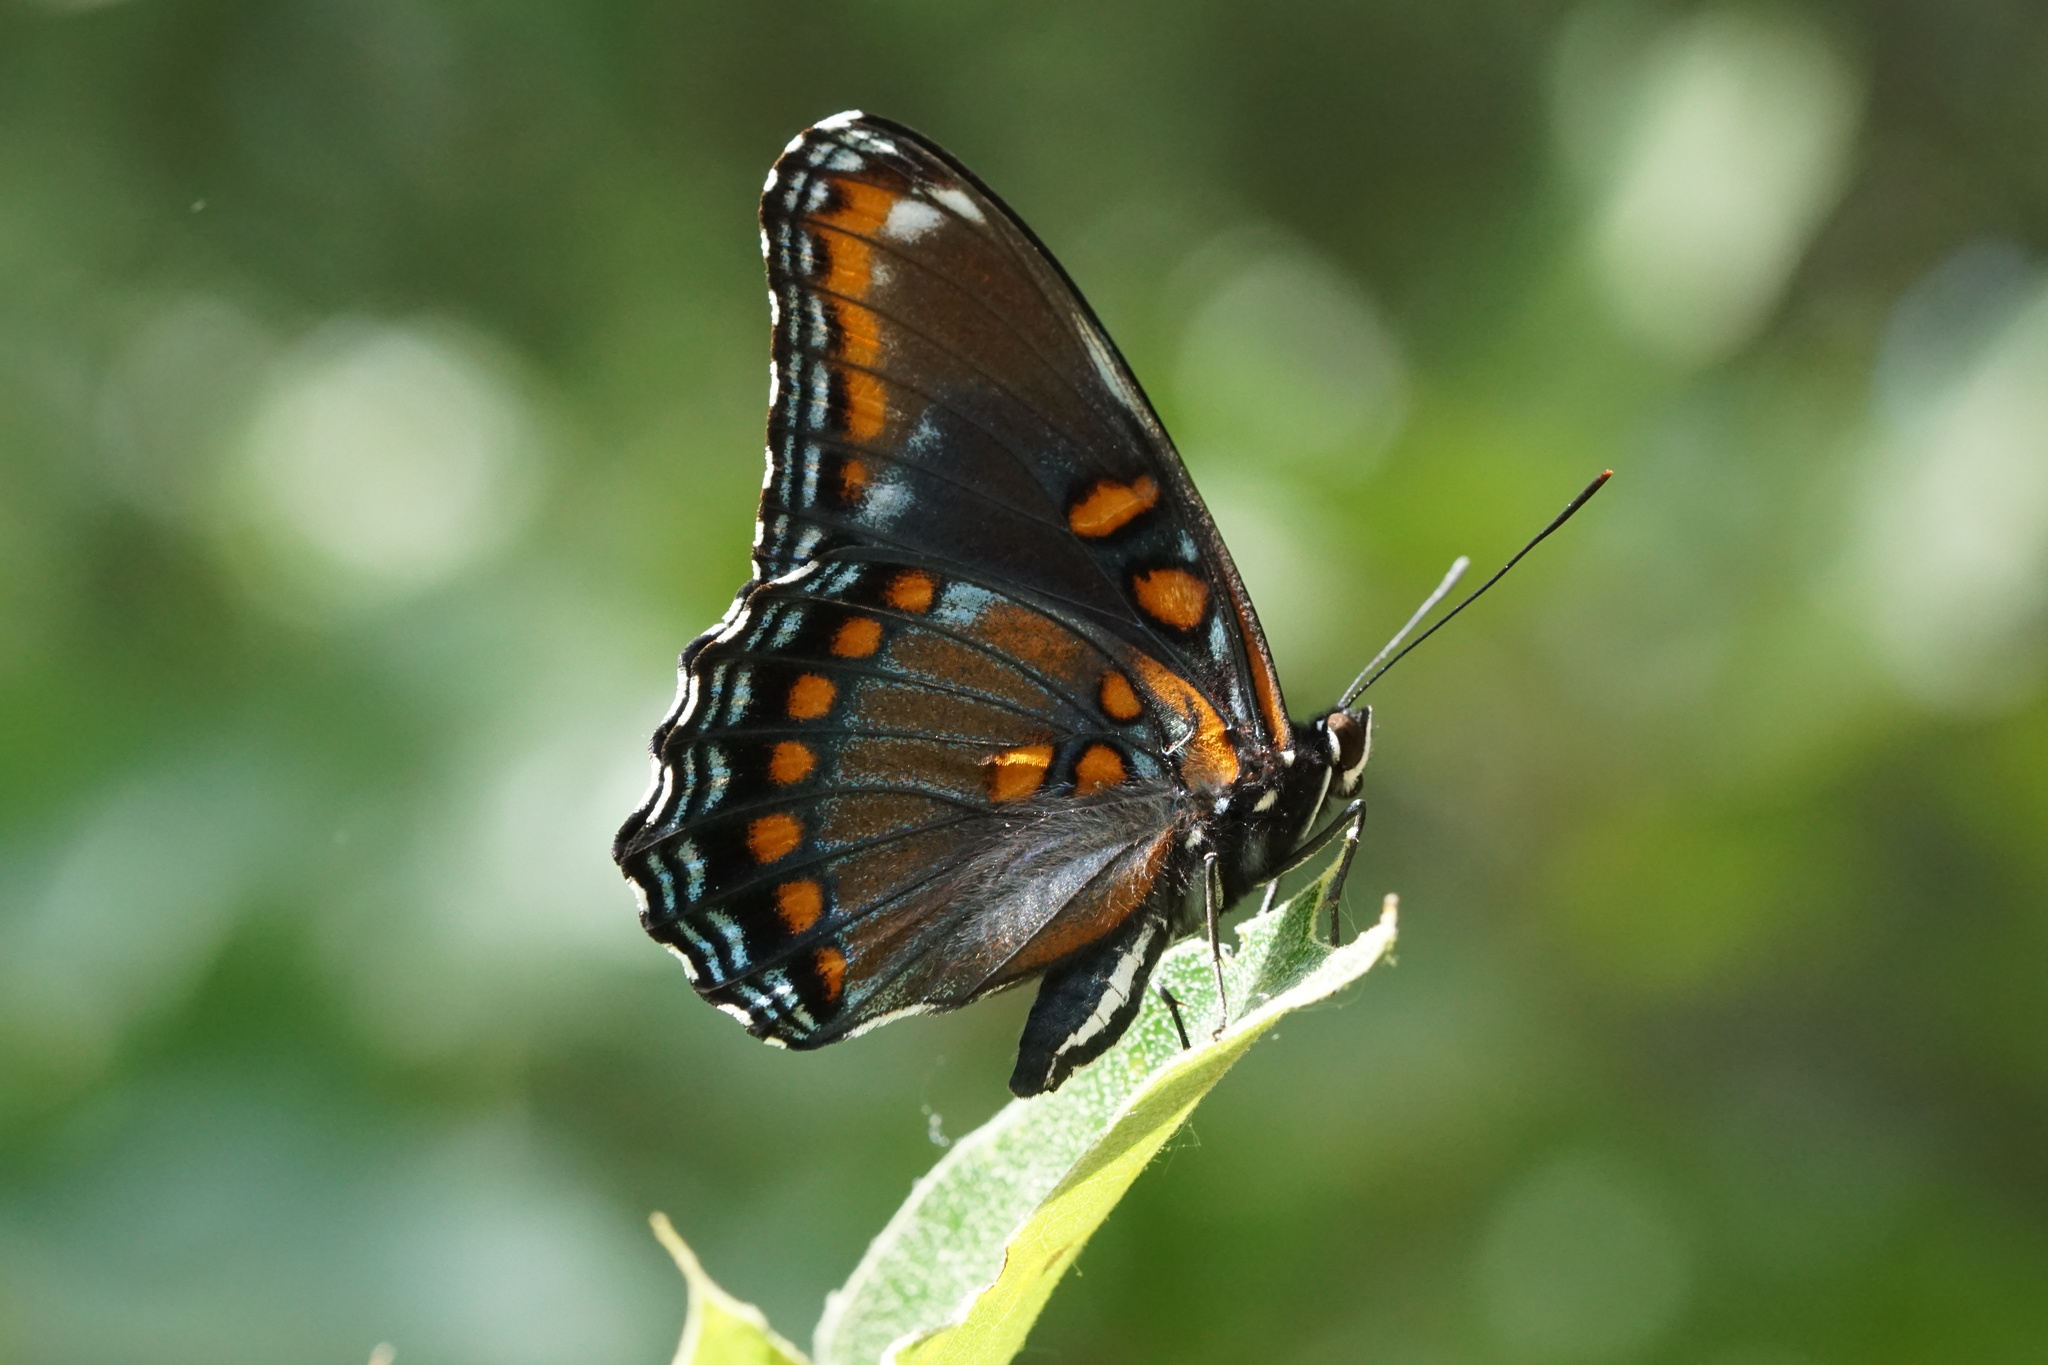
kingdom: Animalia
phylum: Arthropoda
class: Insecta
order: Lepidoptera
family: Nymphalidae
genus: Limenitis
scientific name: Limenitis arthemis
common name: Red-spotted admiral
